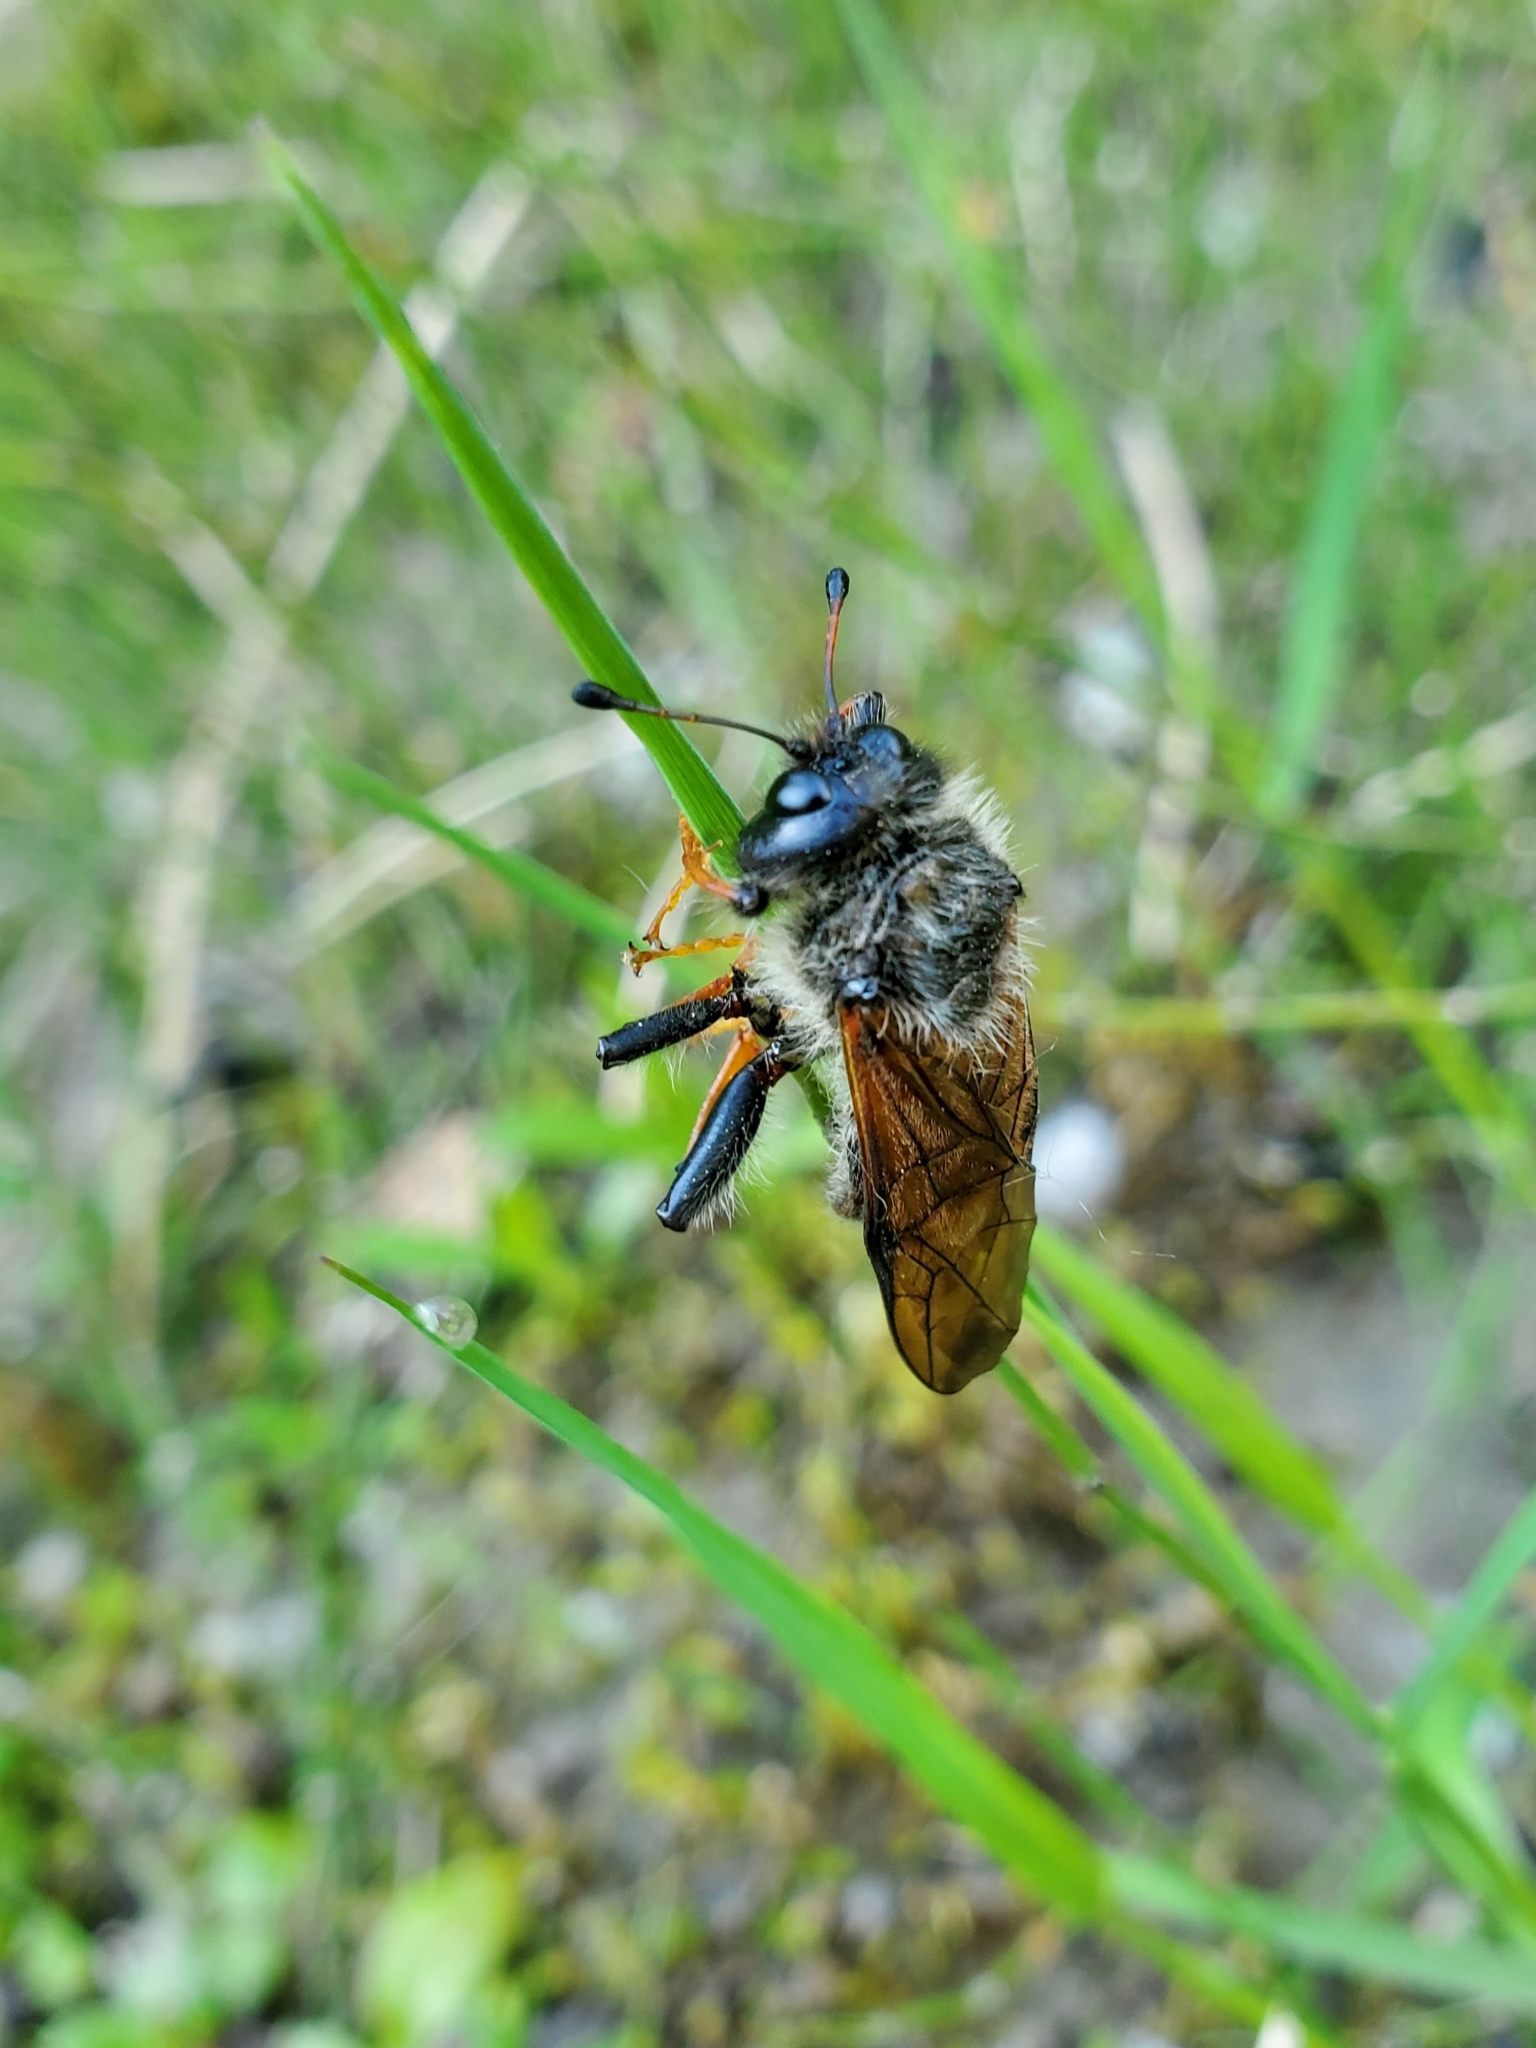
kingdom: Animalia
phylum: Arthropoda
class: Insecta
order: Hymenoptera
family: Cimbicidae
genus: Trichiosoma
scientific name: Trichiosoma triangulum
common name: Giant birch sawfly
